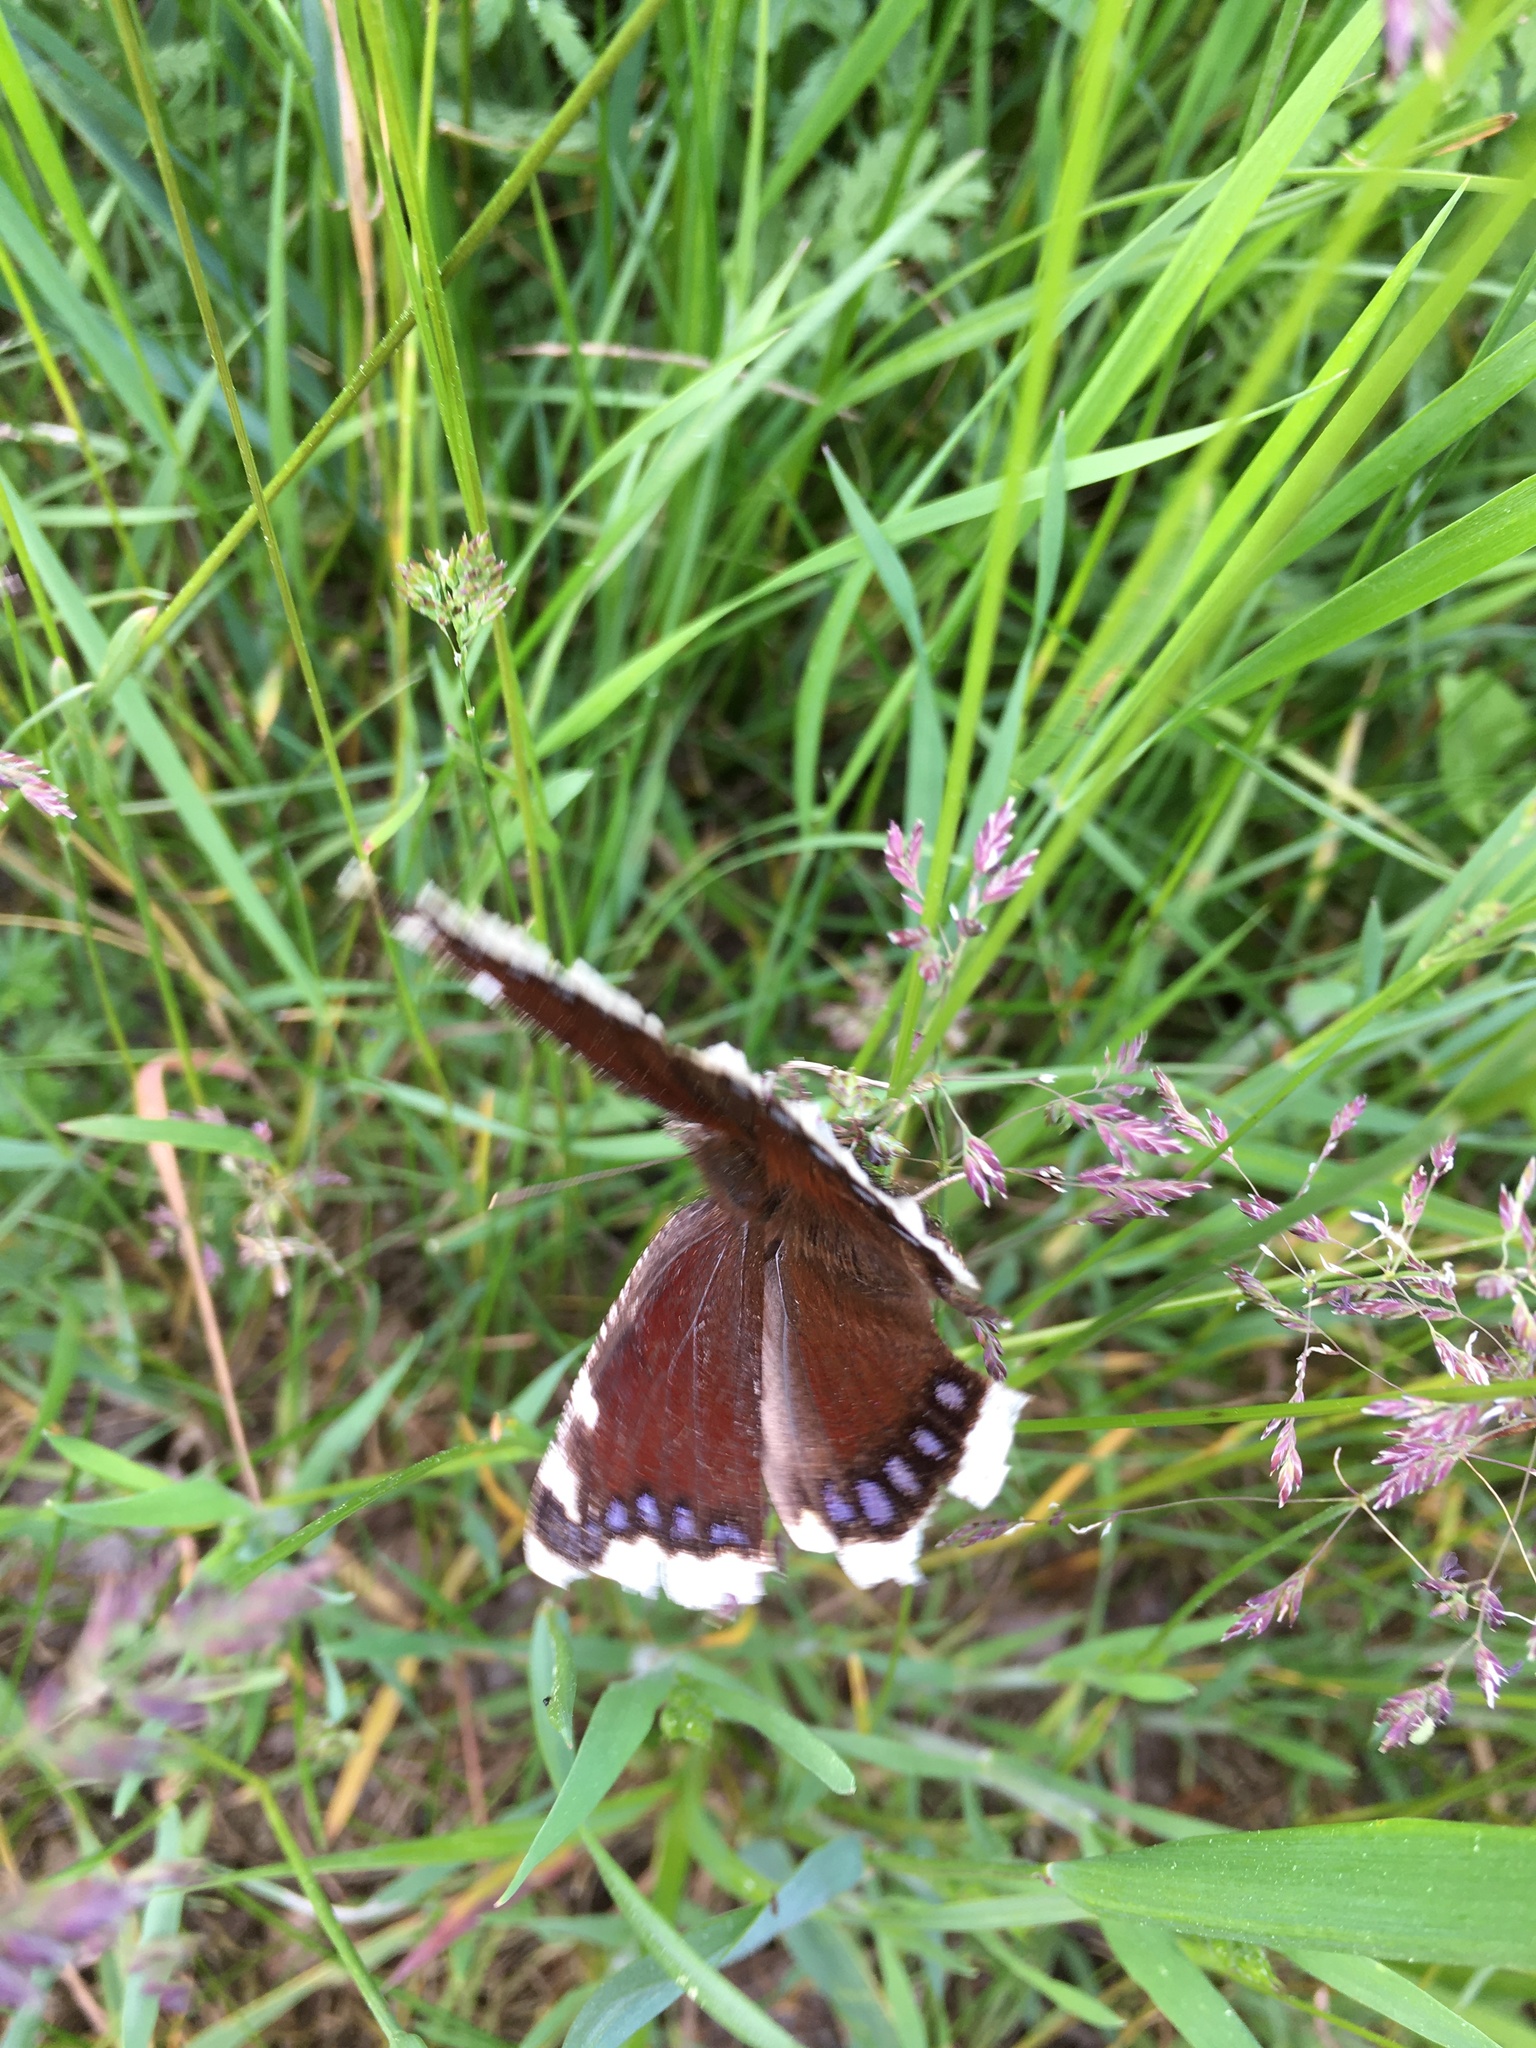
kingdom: Animalia
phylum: Arthropoda
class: Insecta
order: Lepidoptera
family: Nymphalidae
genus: Nymphalis
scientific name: Nymphalis antiopa
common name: Camberwell beauty
